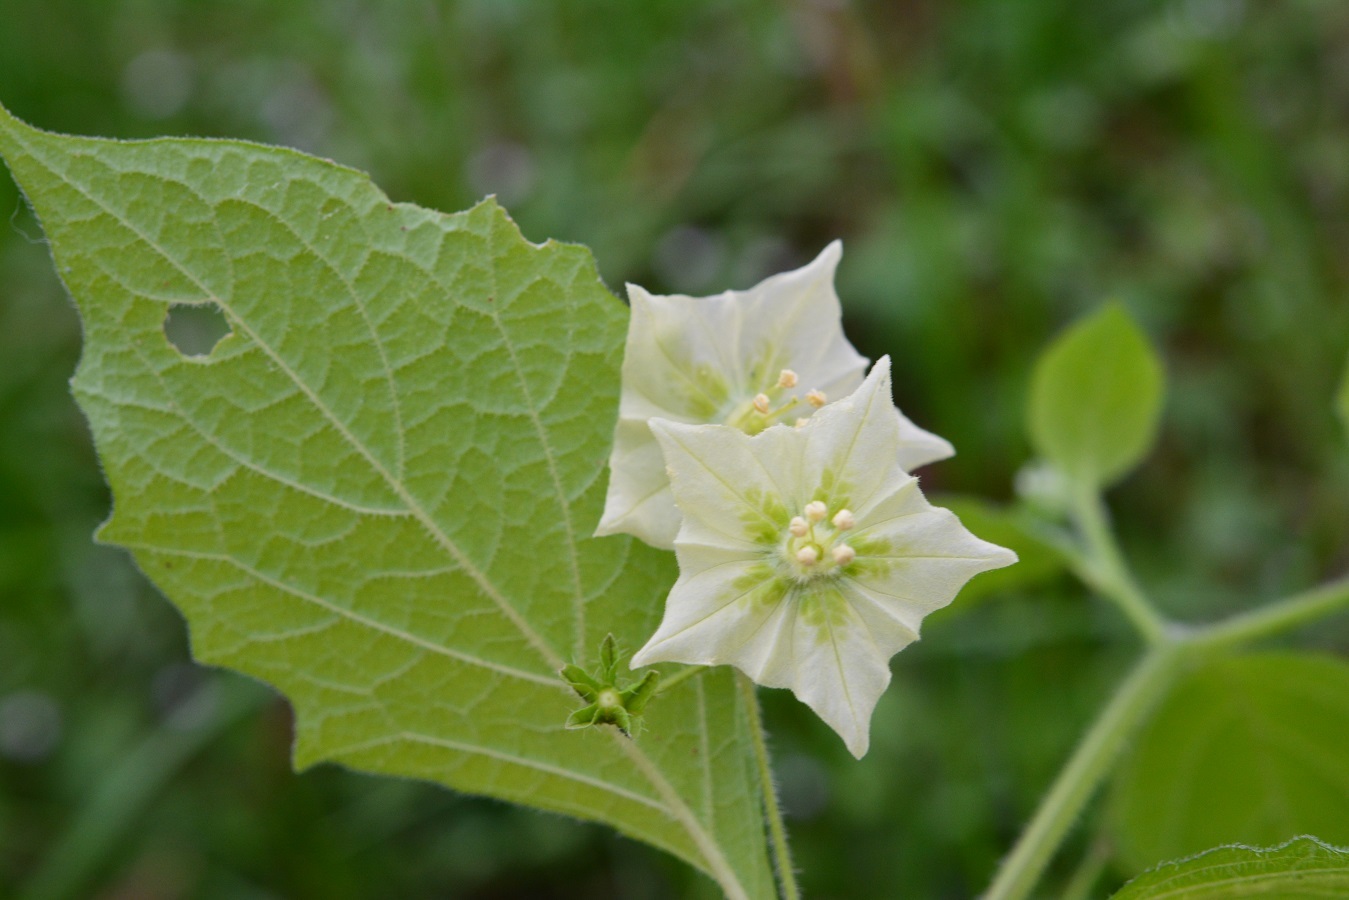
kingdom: Plantae
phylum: Tracheophyta
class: Magnoliopsida
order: Solanales
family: Solanaceae
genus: Jaltomata
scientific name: Jaltomata procumbens
